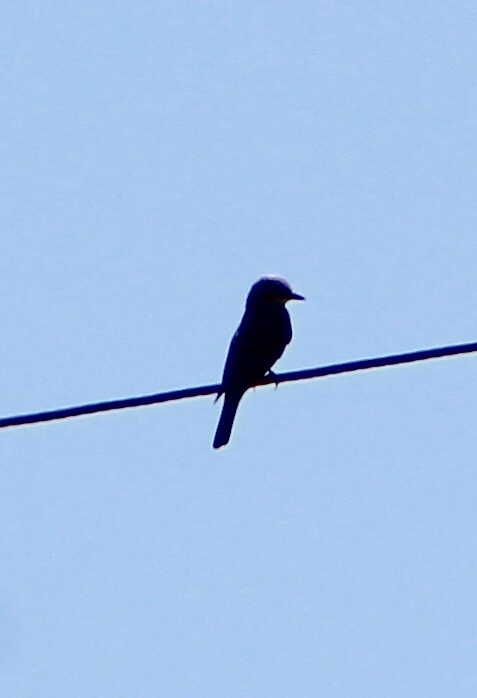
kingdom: Animalia
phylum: Chordata
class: Aves
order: Passeriformes
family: Tyrannidae
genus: Tyrannus
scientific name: Tyrannus vociferans
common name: Cassin's kingbird
